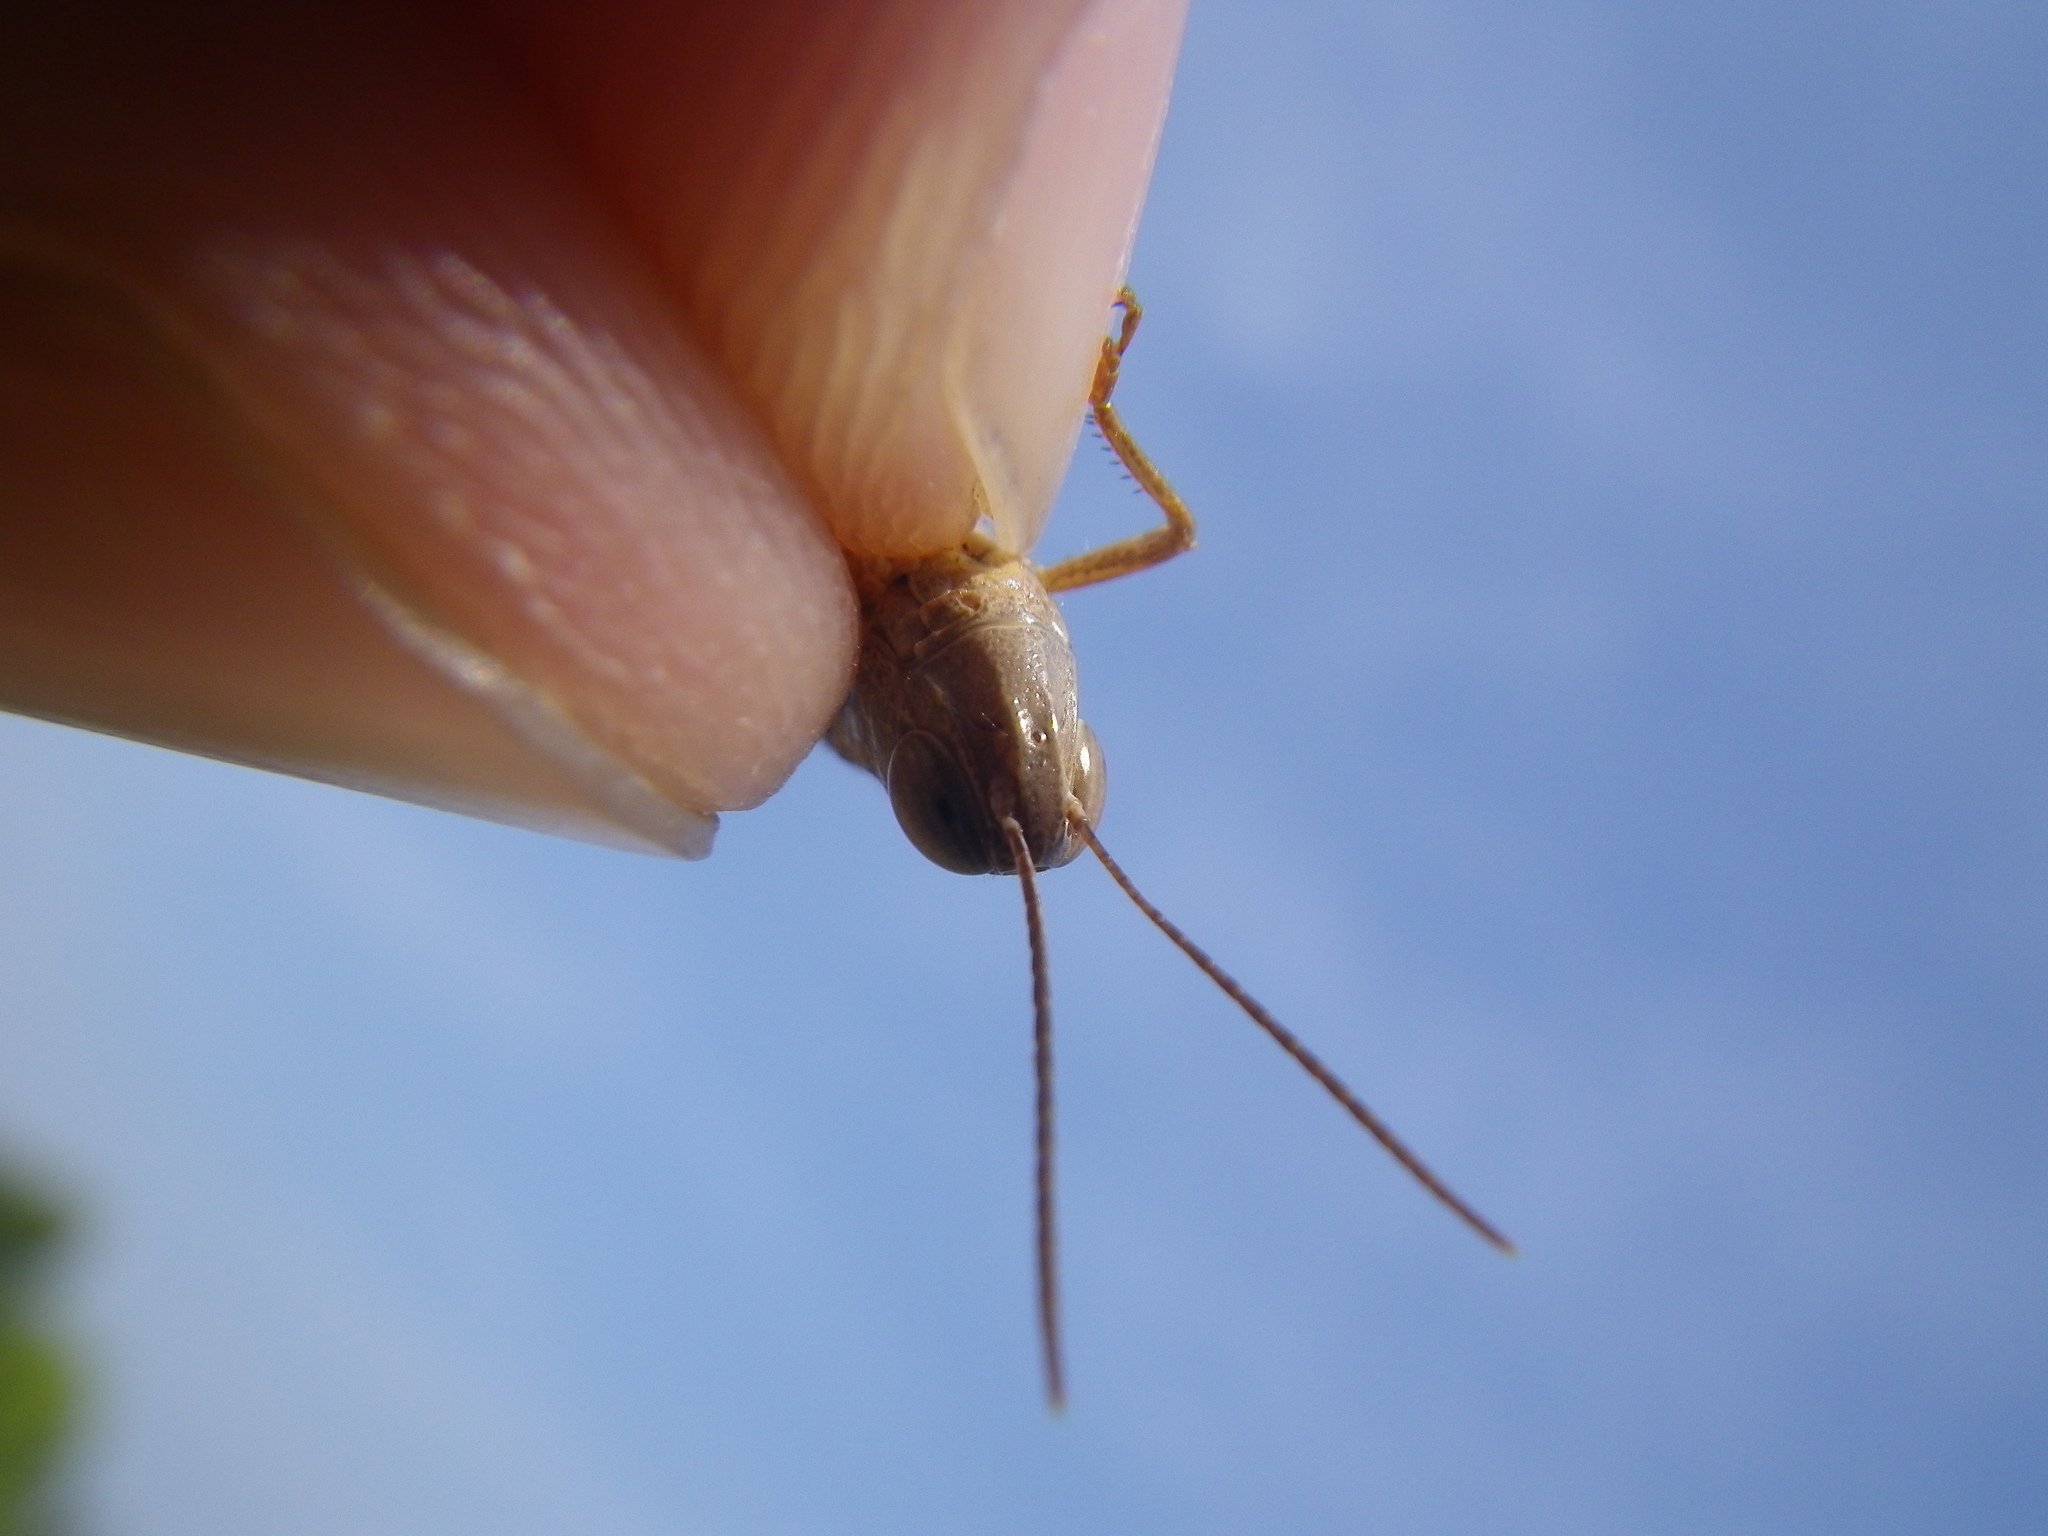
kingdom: Animalia
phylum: Arthropoda
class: Insecta
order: Orthoptera
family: Acrididae
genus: Ramburiella
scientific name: Ramburiella hispanica
